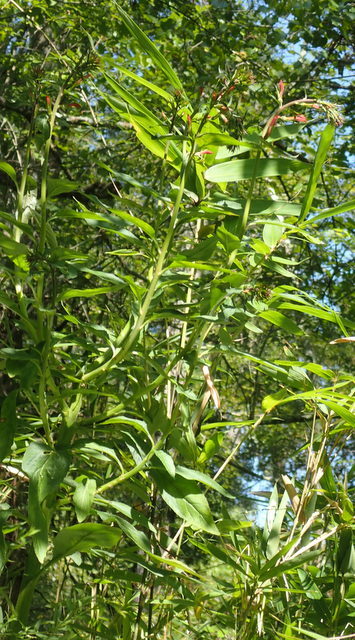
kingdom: Plantae
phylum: Tracheophyta
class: Magnoliopsida
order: Asterales
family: Campanulaceae
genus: Lobelia
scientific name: Lobelia cardinalis
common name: Cardinal flower
